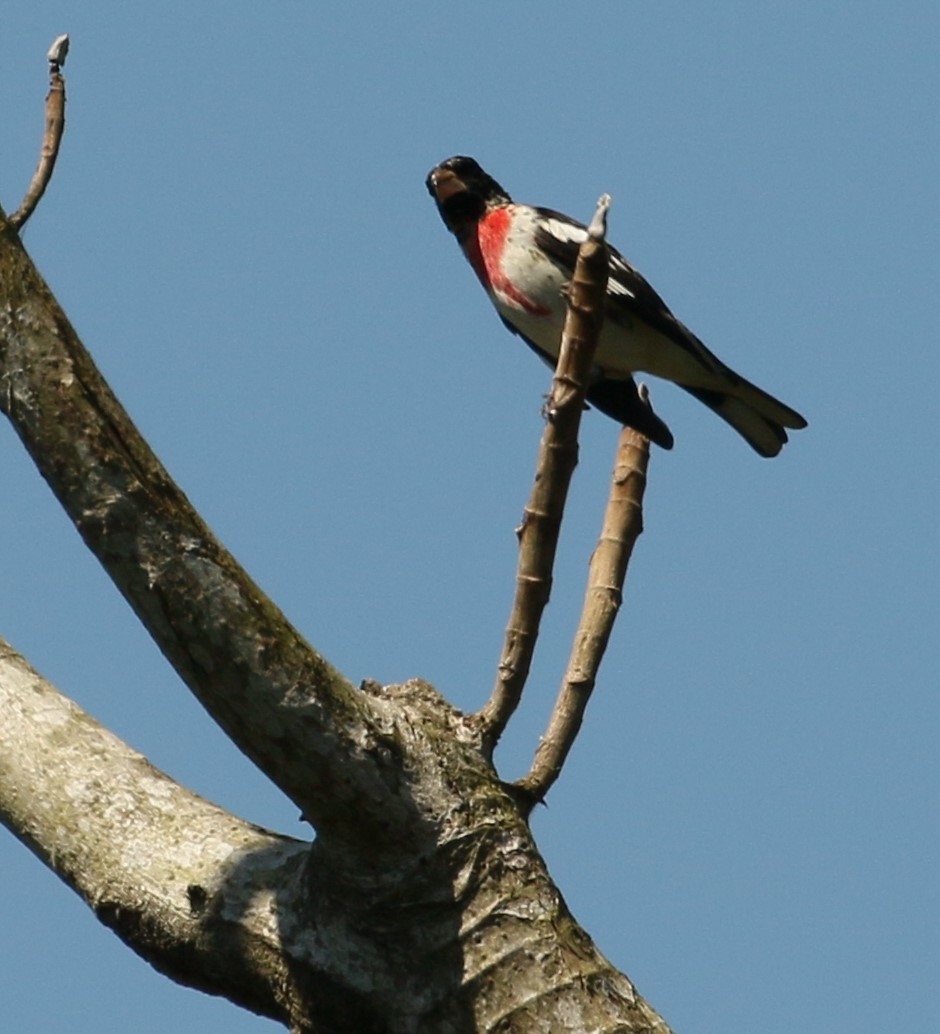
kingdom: Animalia
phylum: Chordata
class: Aves
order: Passeriformes
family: Cardinalidae
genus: Pheucticus
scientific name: Pheucticus ludovicianus
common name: Rose-breasted grosbeak
